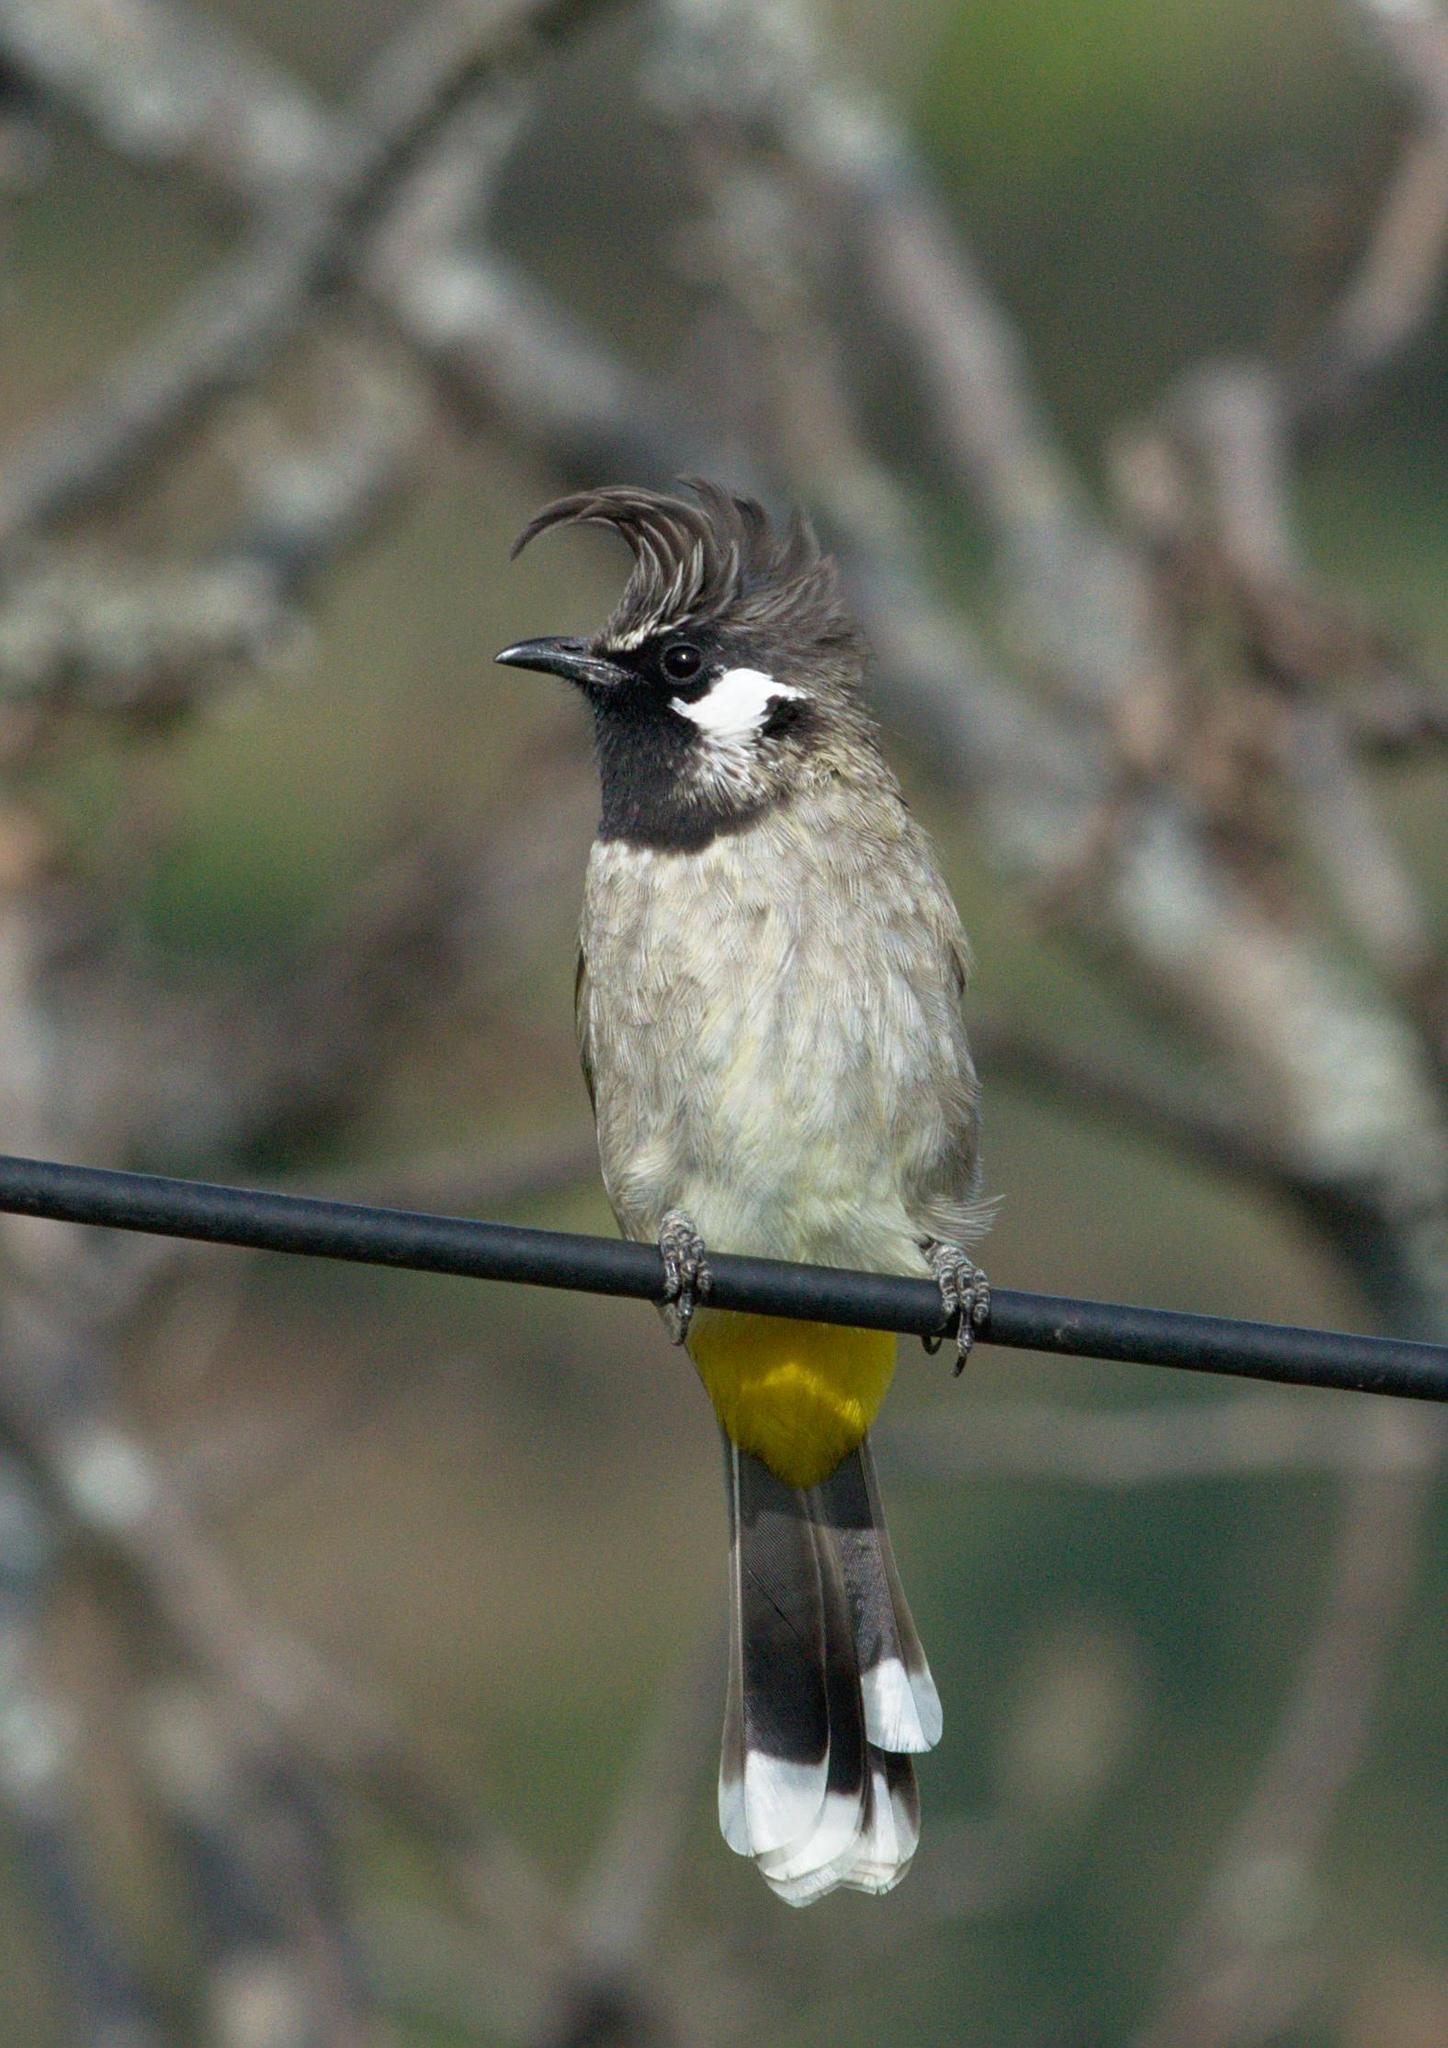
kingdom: Animalia
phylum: Chordata
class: Aves
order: Passeriformes
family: Pycnonotidae
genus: Pycnonotus
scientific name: Pycnonotus leucogenys
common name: Himalayan bulbul
